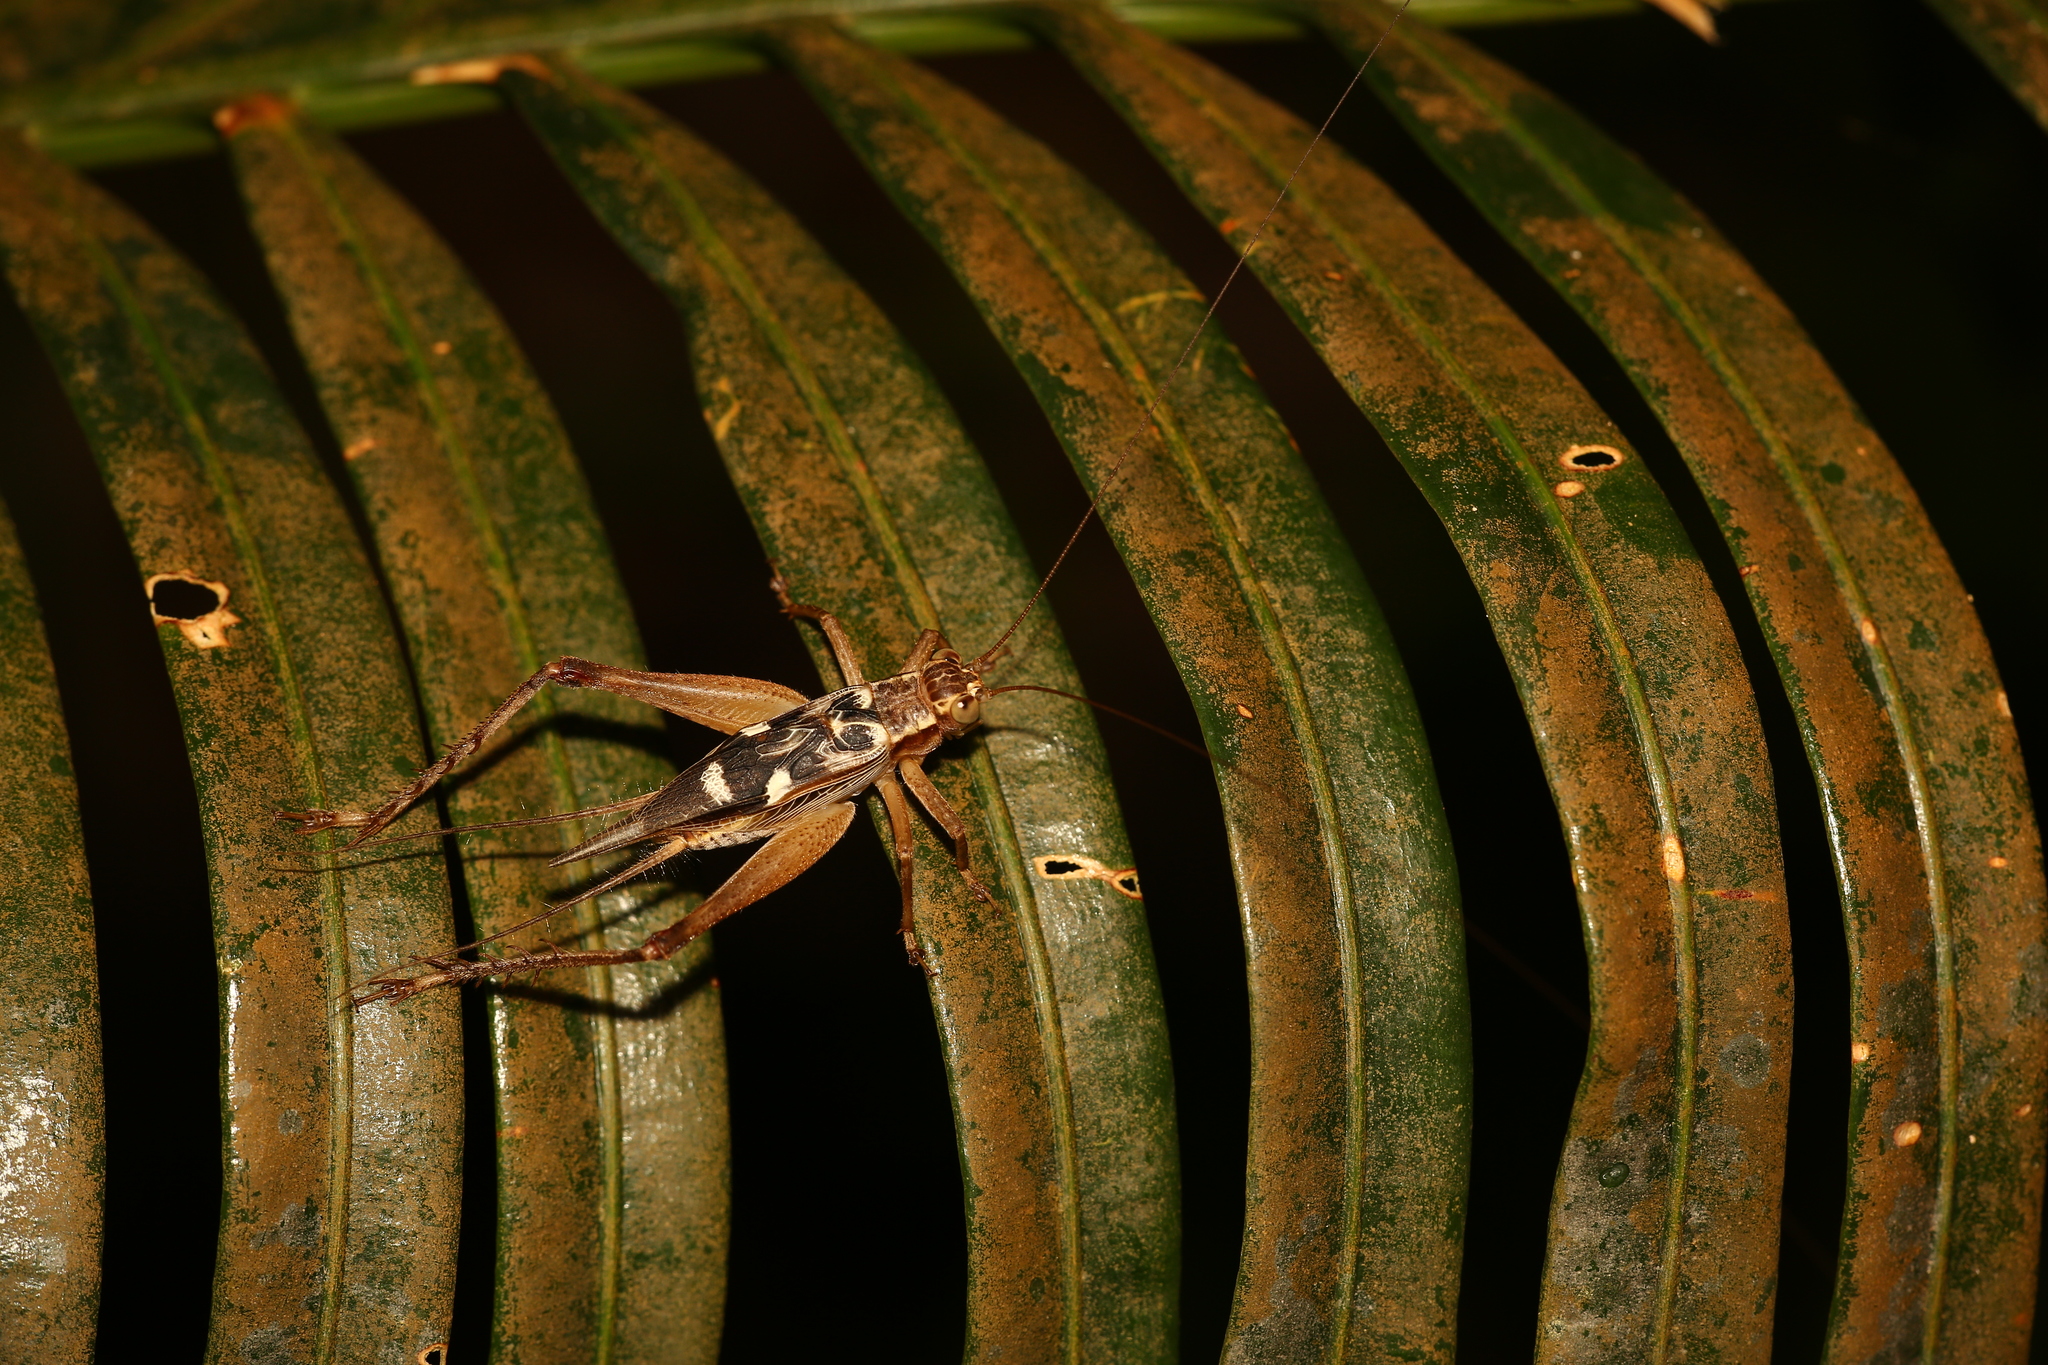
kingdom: Animalia
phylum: Arthropoda
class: Insecta
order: Orthoptera
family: Gryllidae
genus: Cardiodactylus
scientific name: Cardiodactylus novaeguineae
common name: Sad cricket
